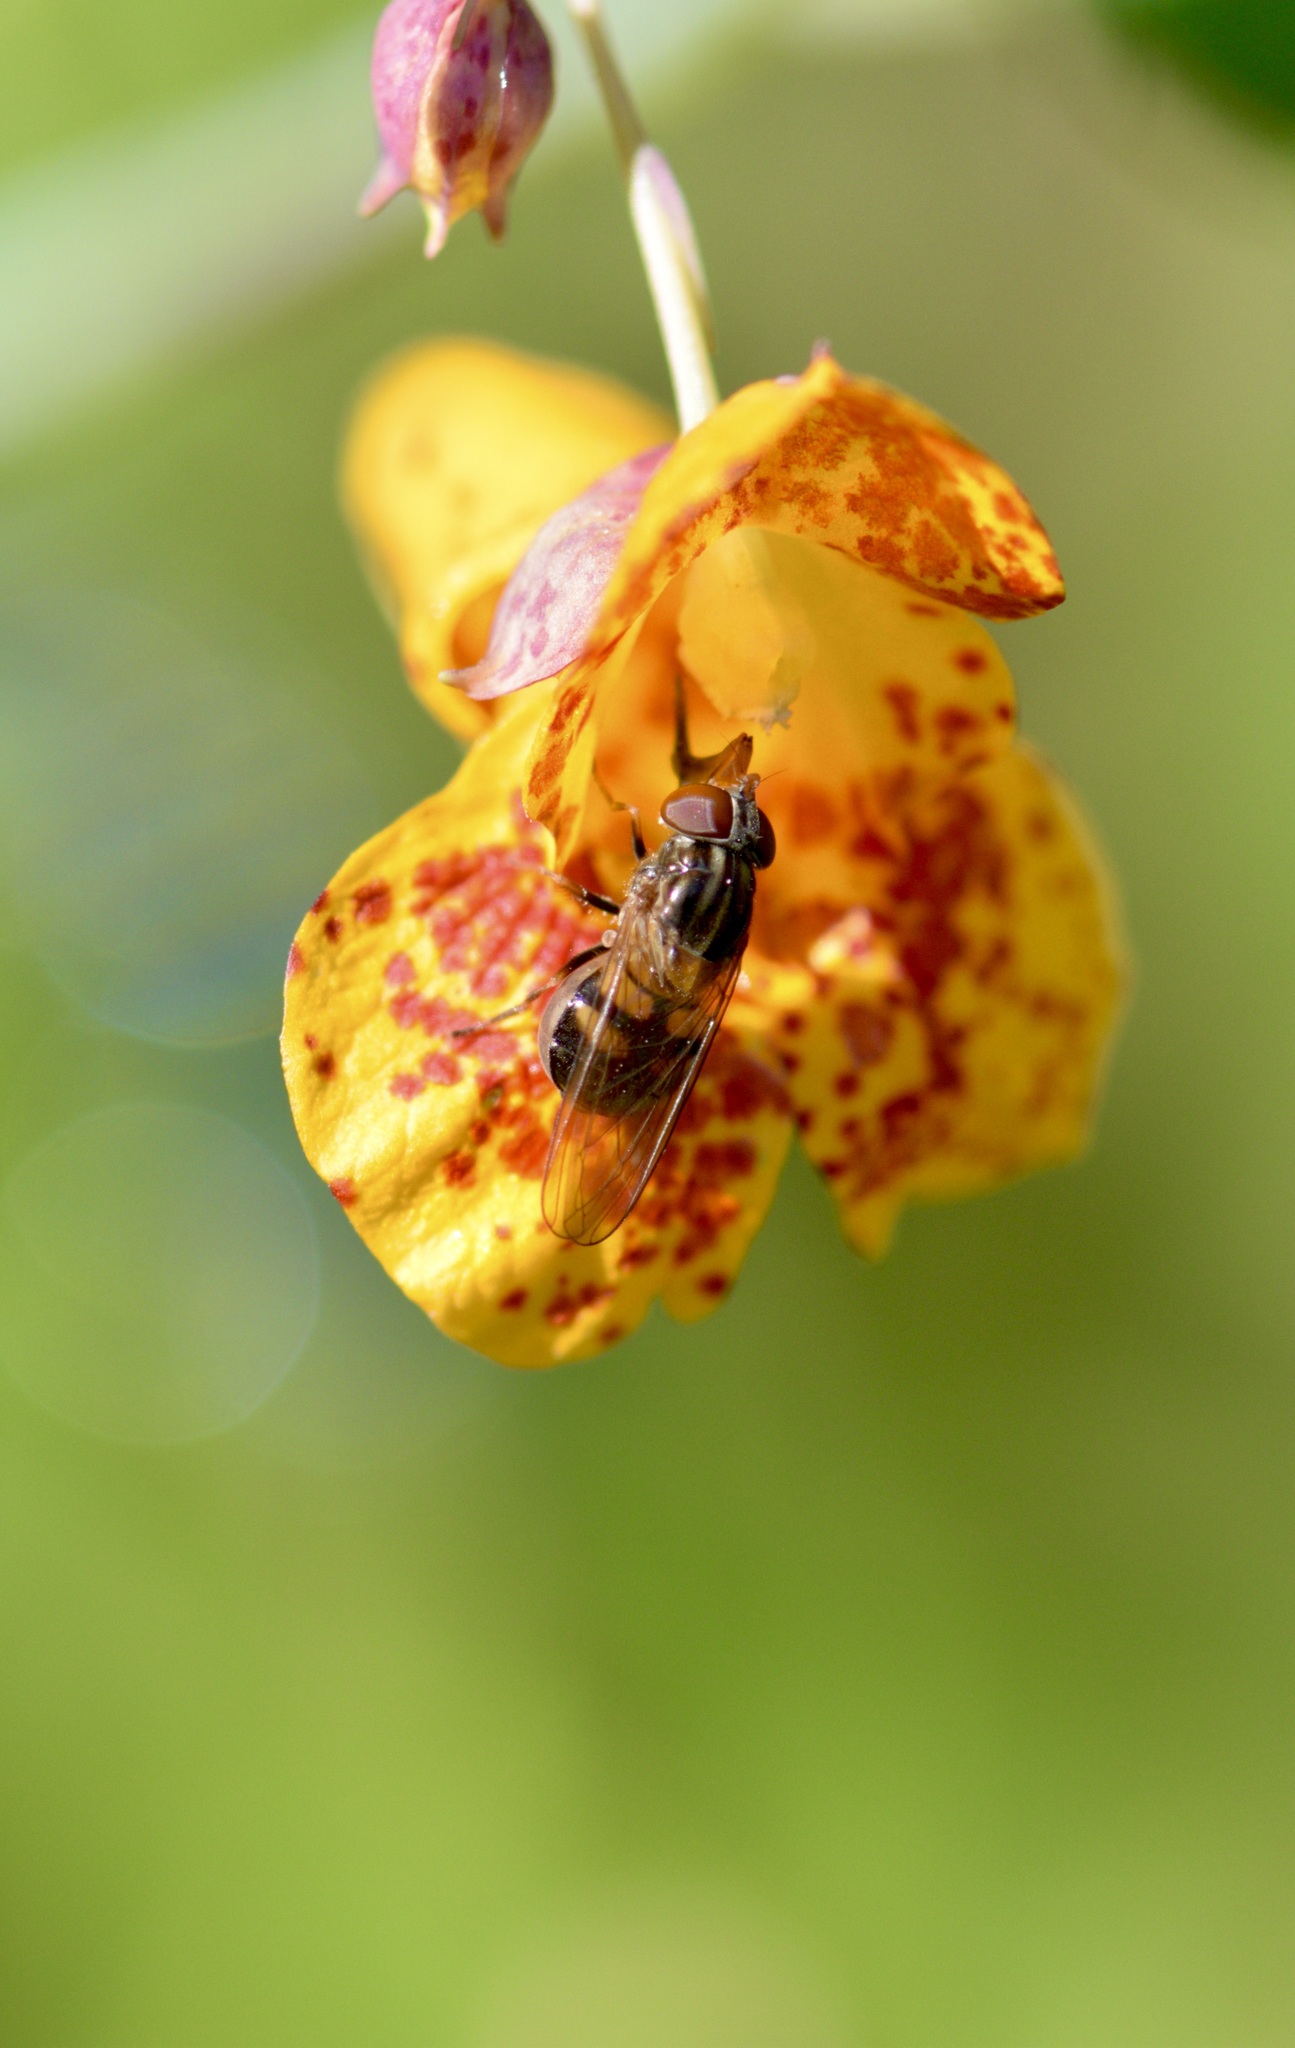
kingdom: Animalia
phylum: Arthropoda
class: Insecta
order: Diptera
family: Syrphidae
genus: Rhingia
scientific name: Rhingia nasica
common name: American snout fly
